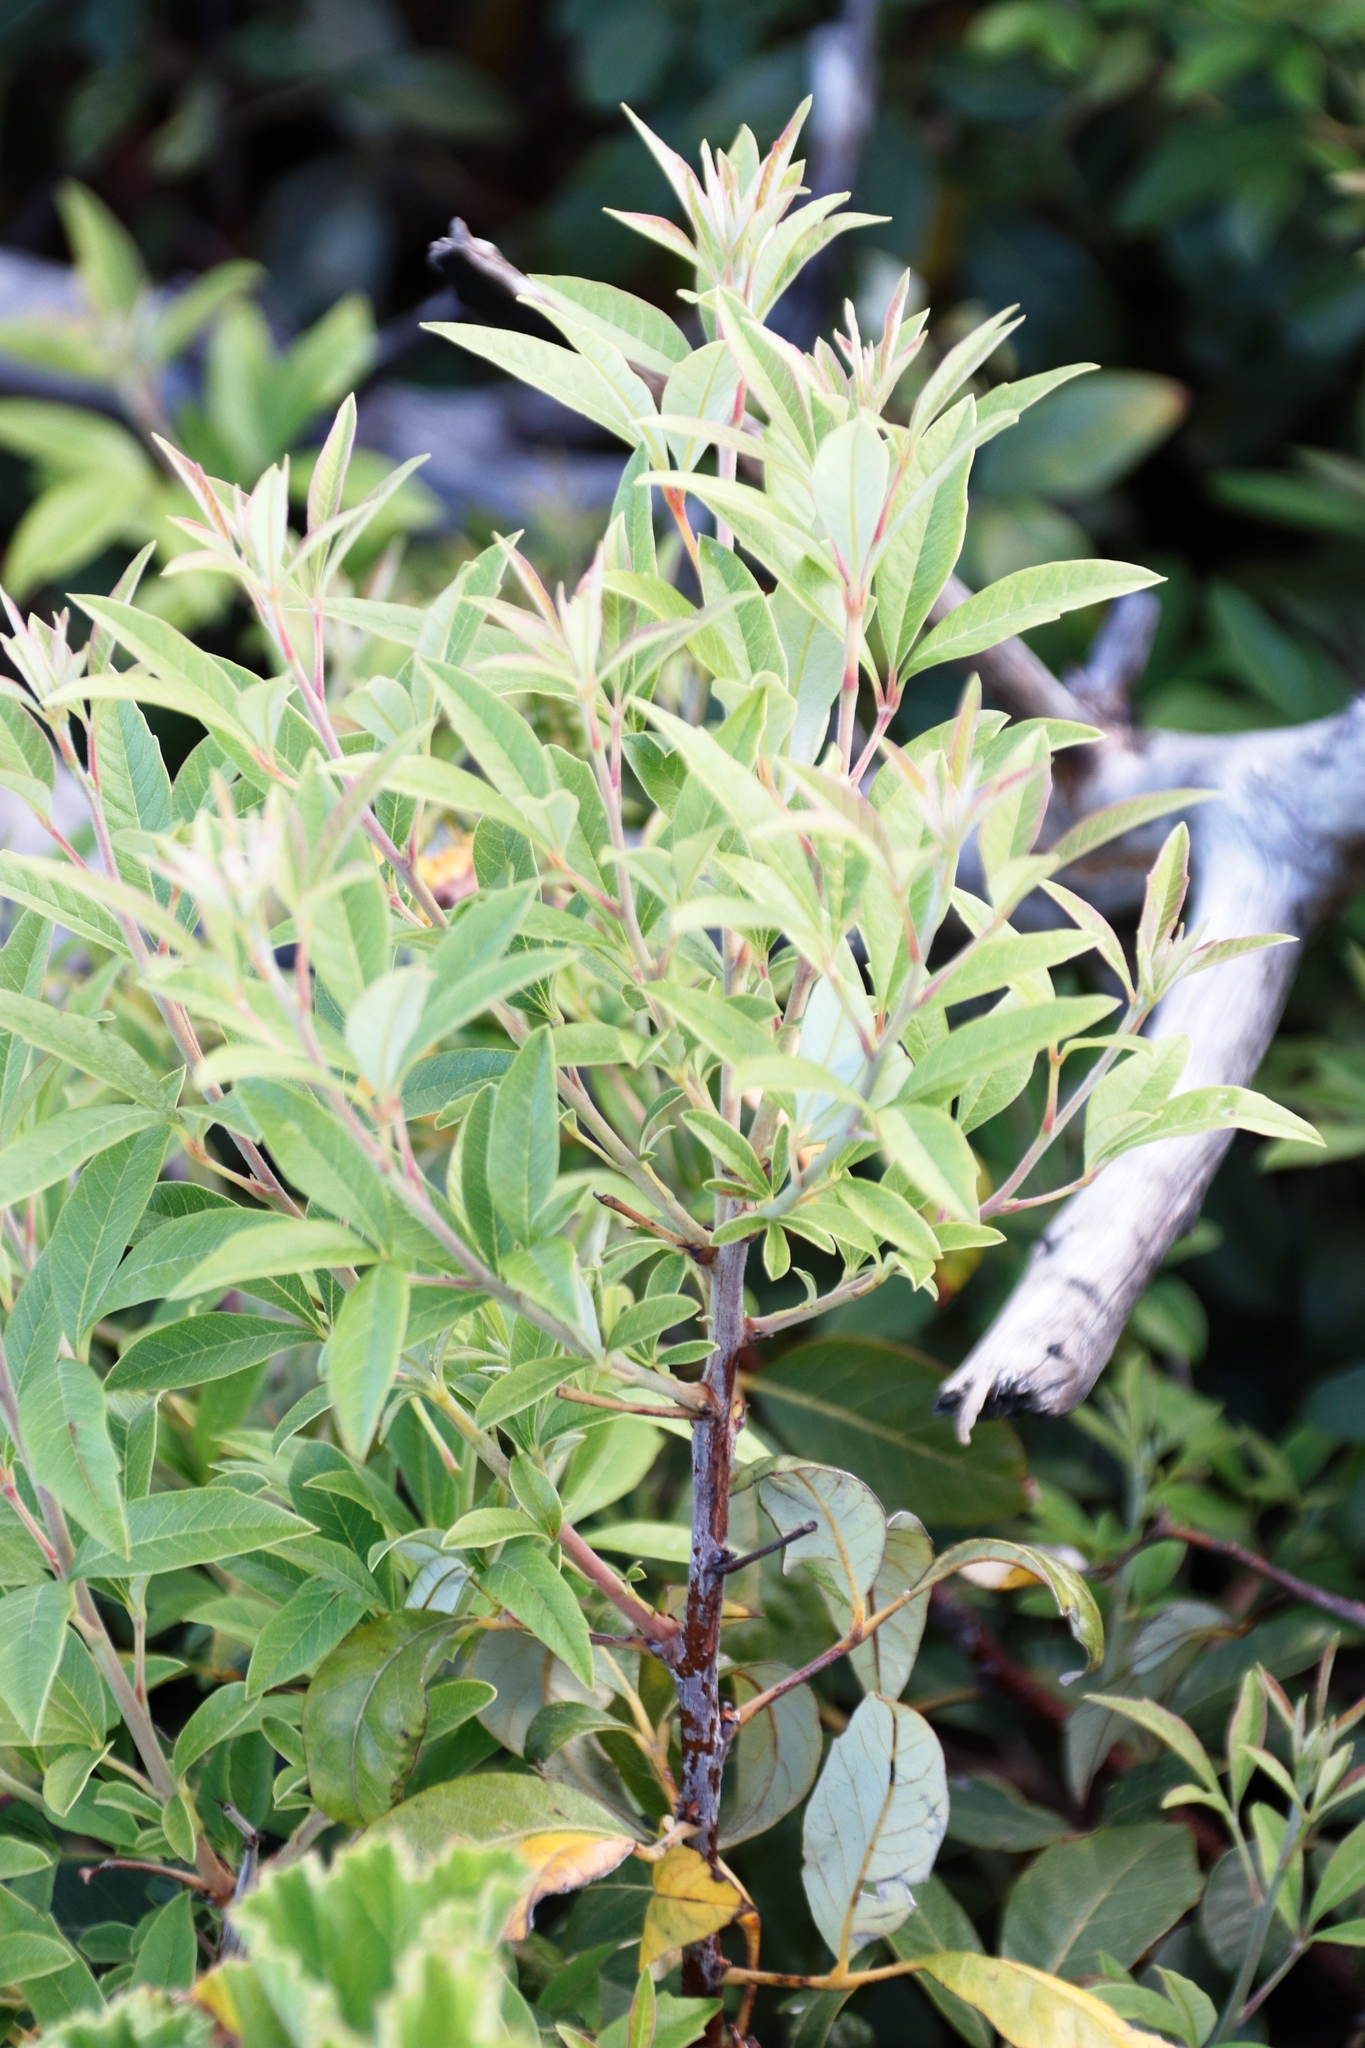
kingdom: Plantae
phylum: Tracheophyta
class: Magnoliopsida
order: Sapindales
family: Anacardiaceae
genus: Searsia
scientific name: Searsia tomentosa
